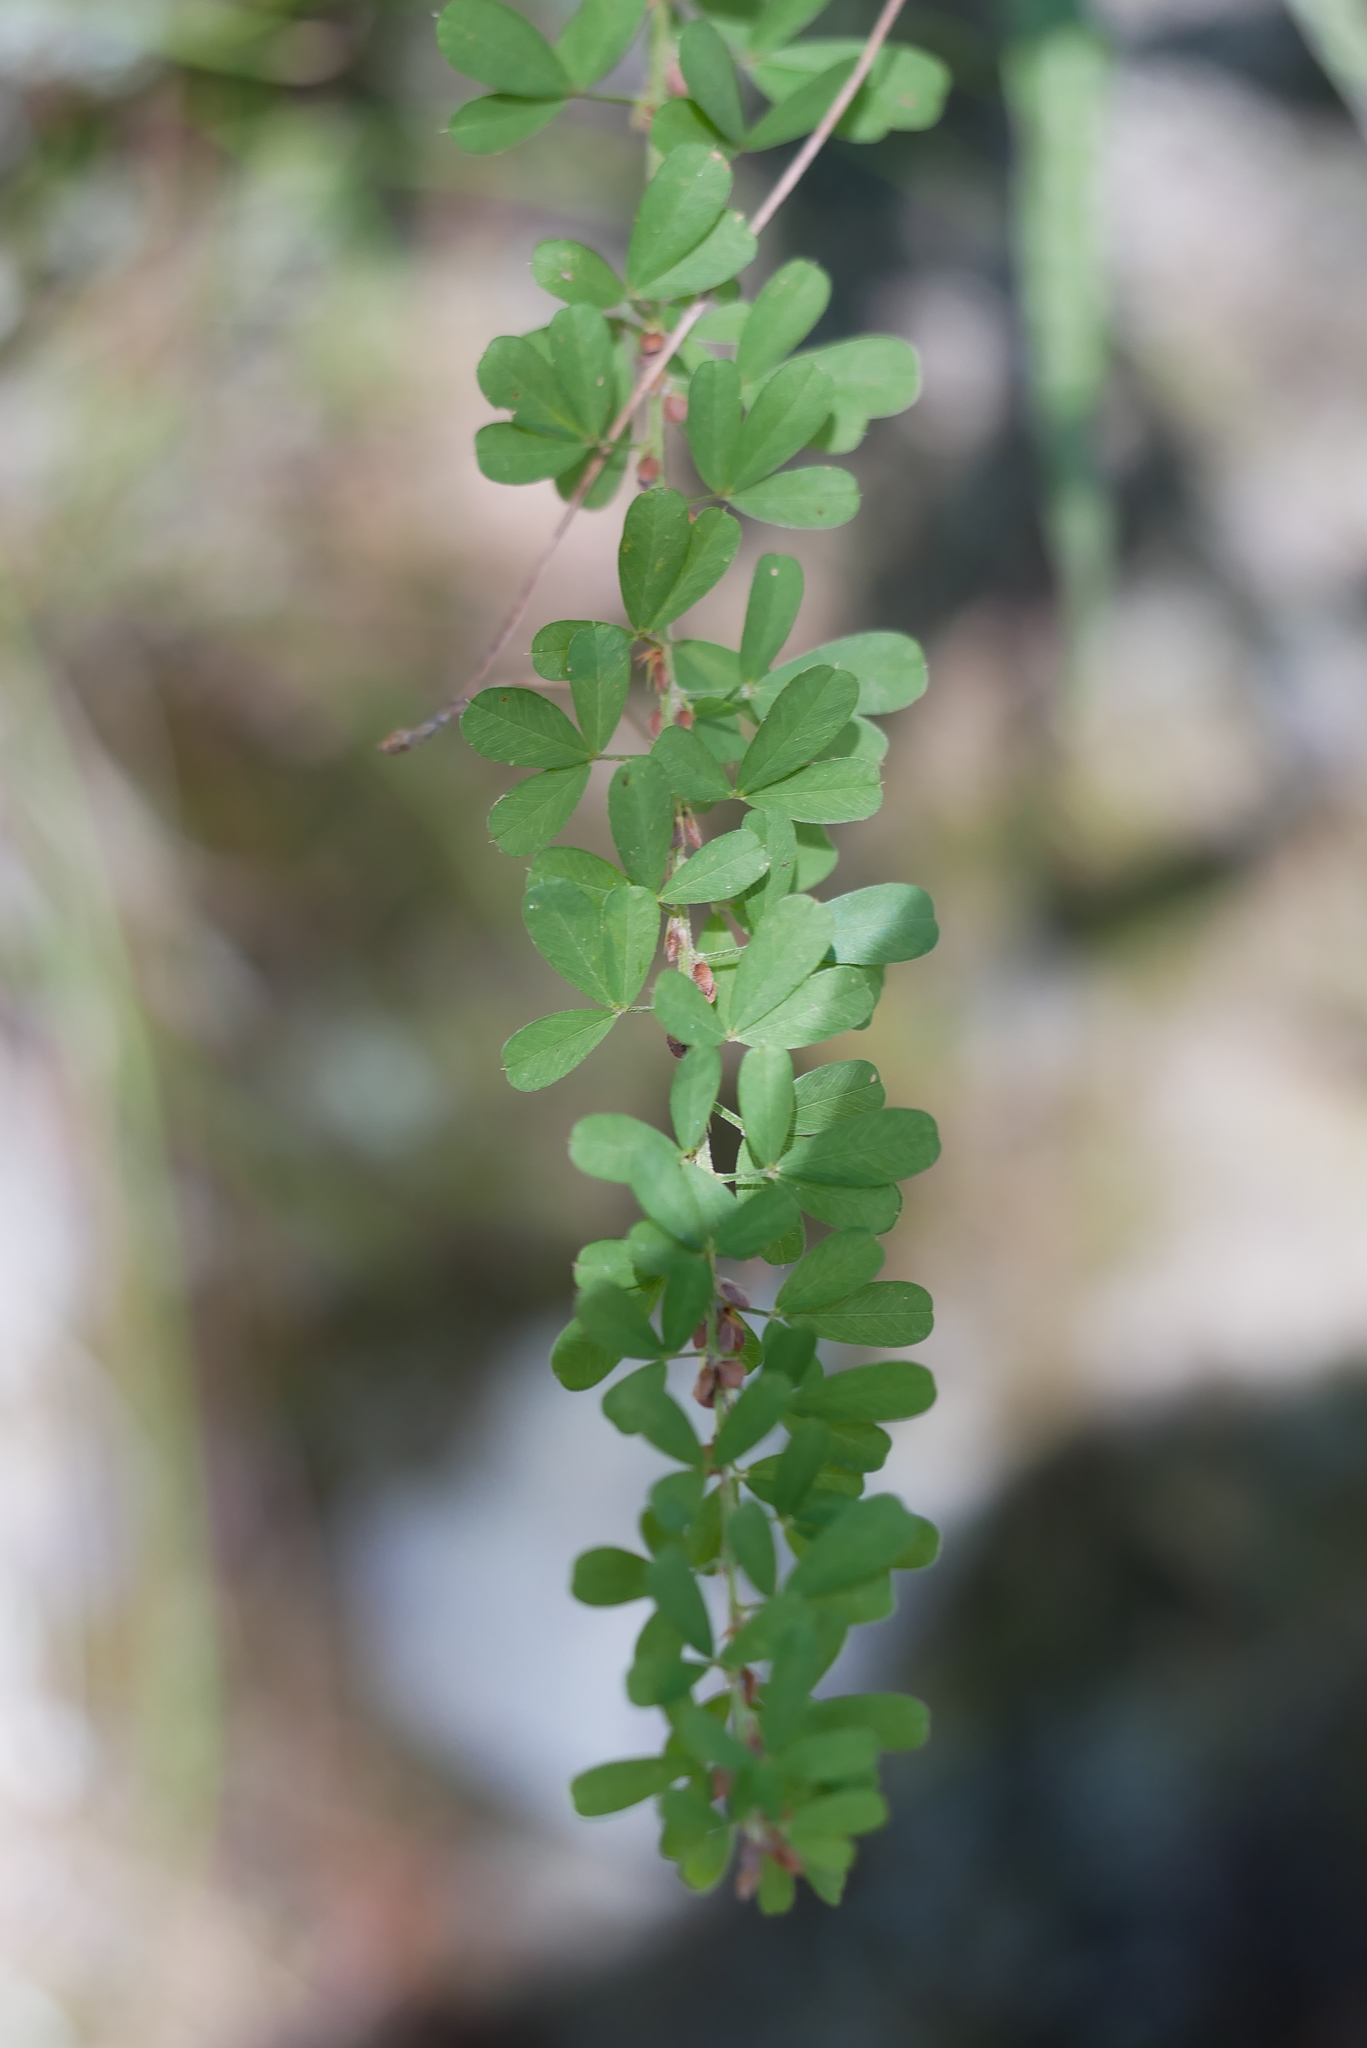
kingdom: Plantae
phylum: Tracheophyta
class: Magnoliopsida
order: Fabales
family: Fabaceae
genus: Lespedeza
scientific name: Lespedeza cuneata
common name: Chinese bush-clover
